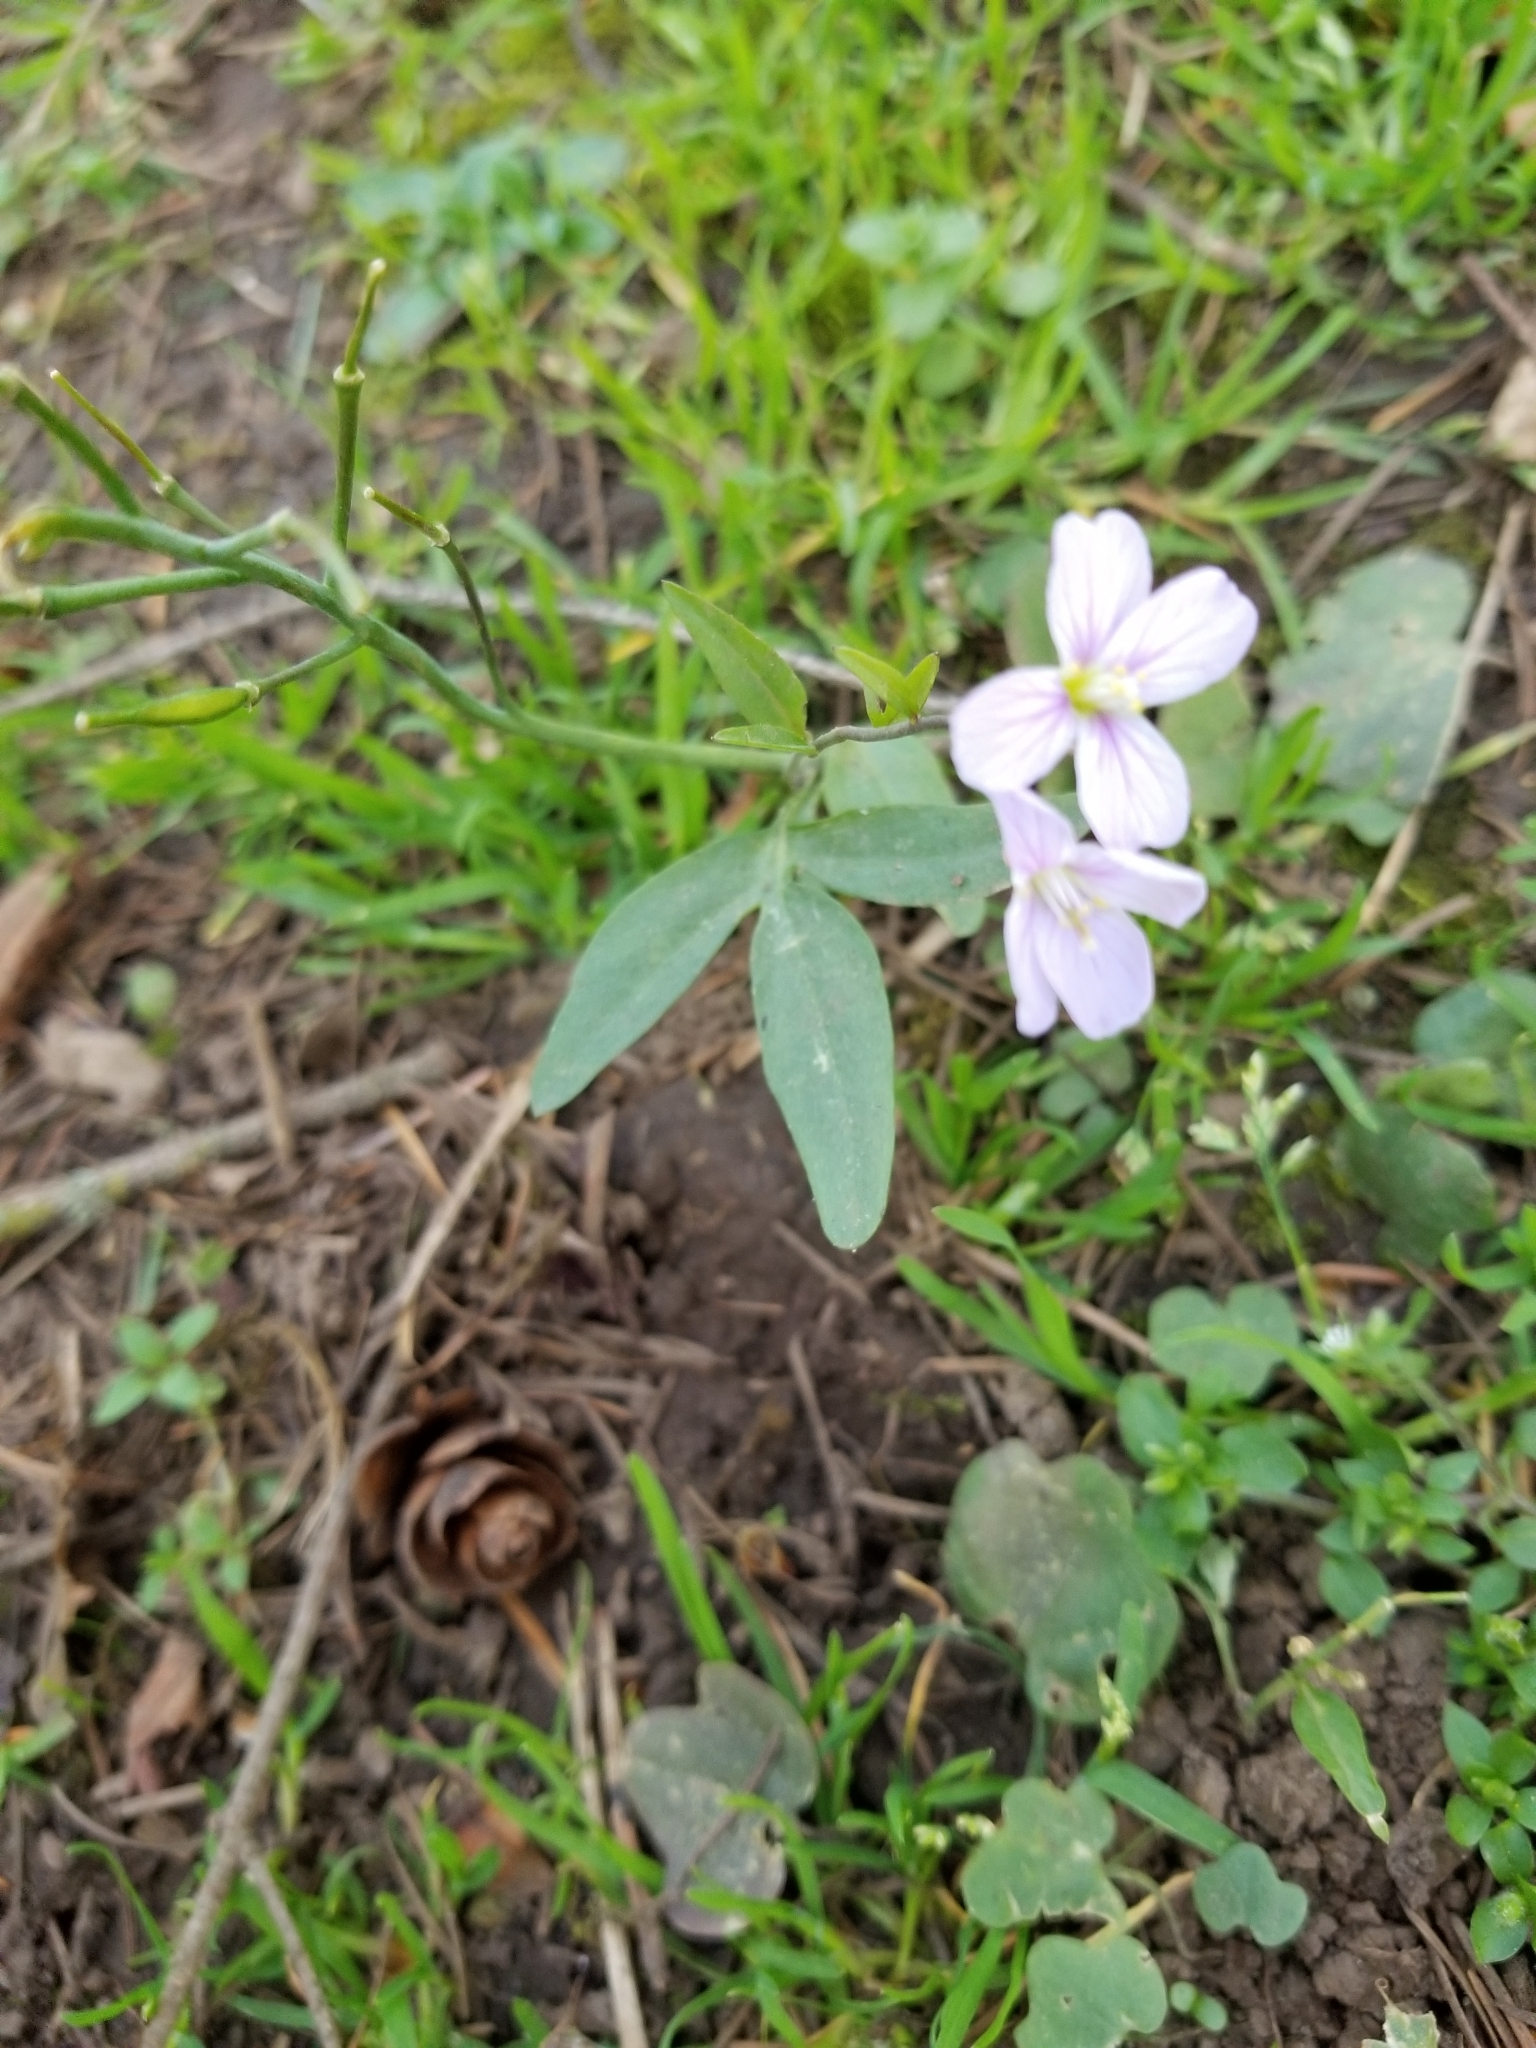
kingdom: Plantae
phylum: Tracheophyta
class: Magnoliopsida
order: Brassicales
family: Brassicaceae
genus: Cardamine
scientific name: Cardamine nuttallii
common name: Nuttall's toothwort
